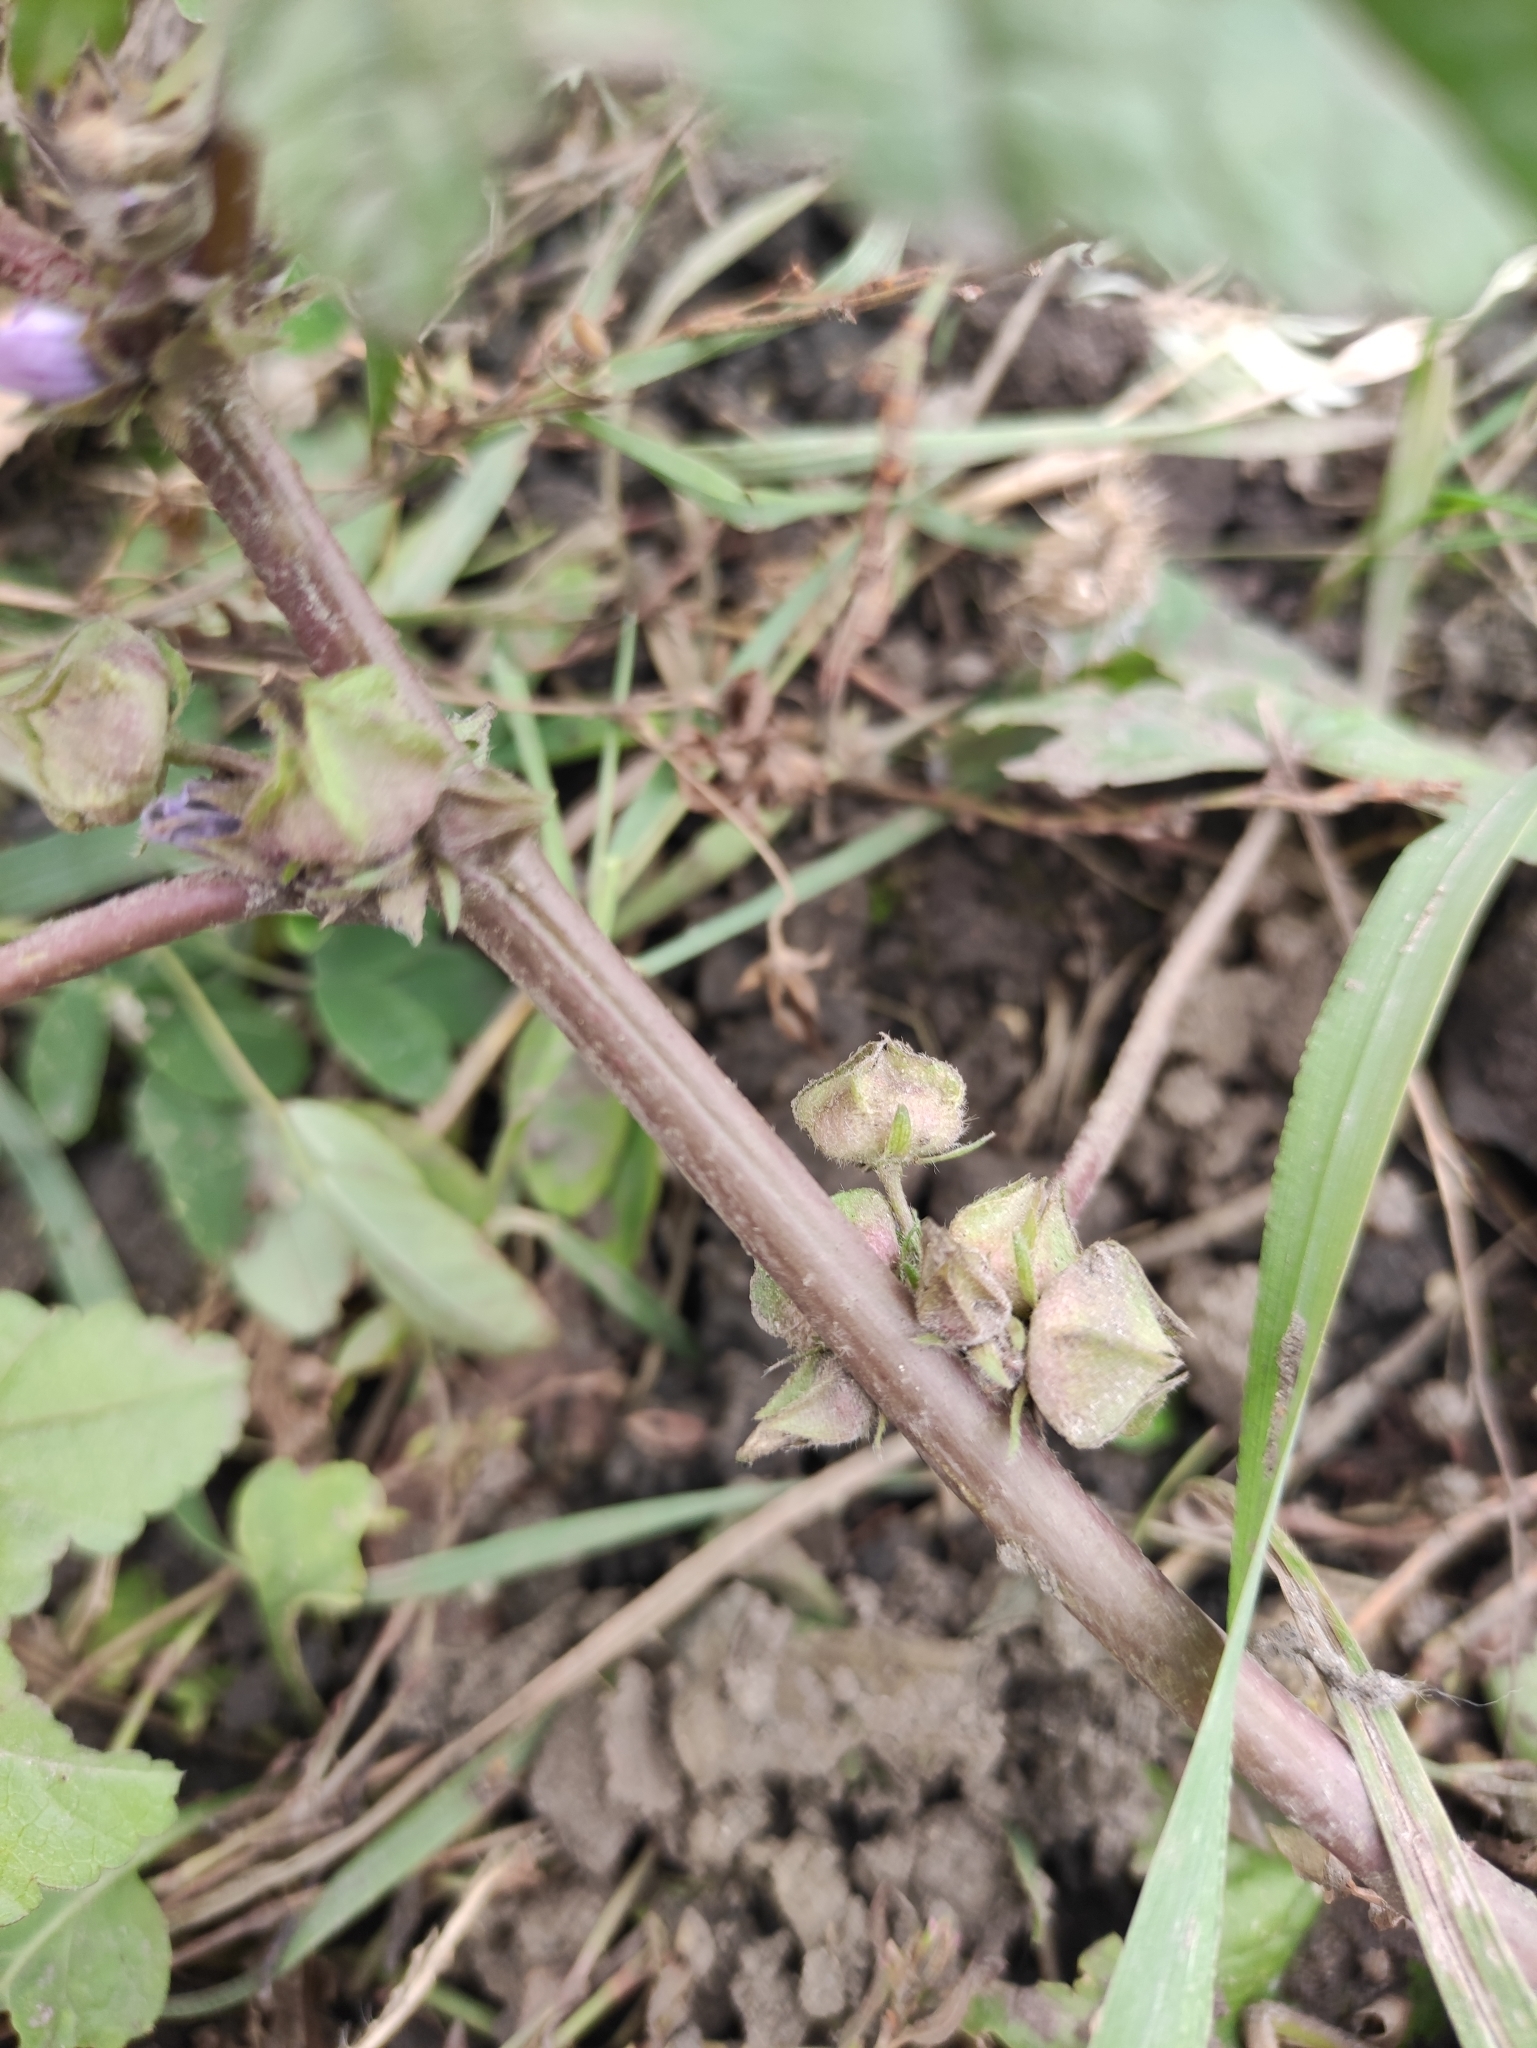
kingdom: Plantae
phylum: Tracheophyta
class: Magnoliopsida
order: Malvales
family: Malvaceae
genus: Malva
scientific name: Malva verticillata
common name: Chinese mallow
